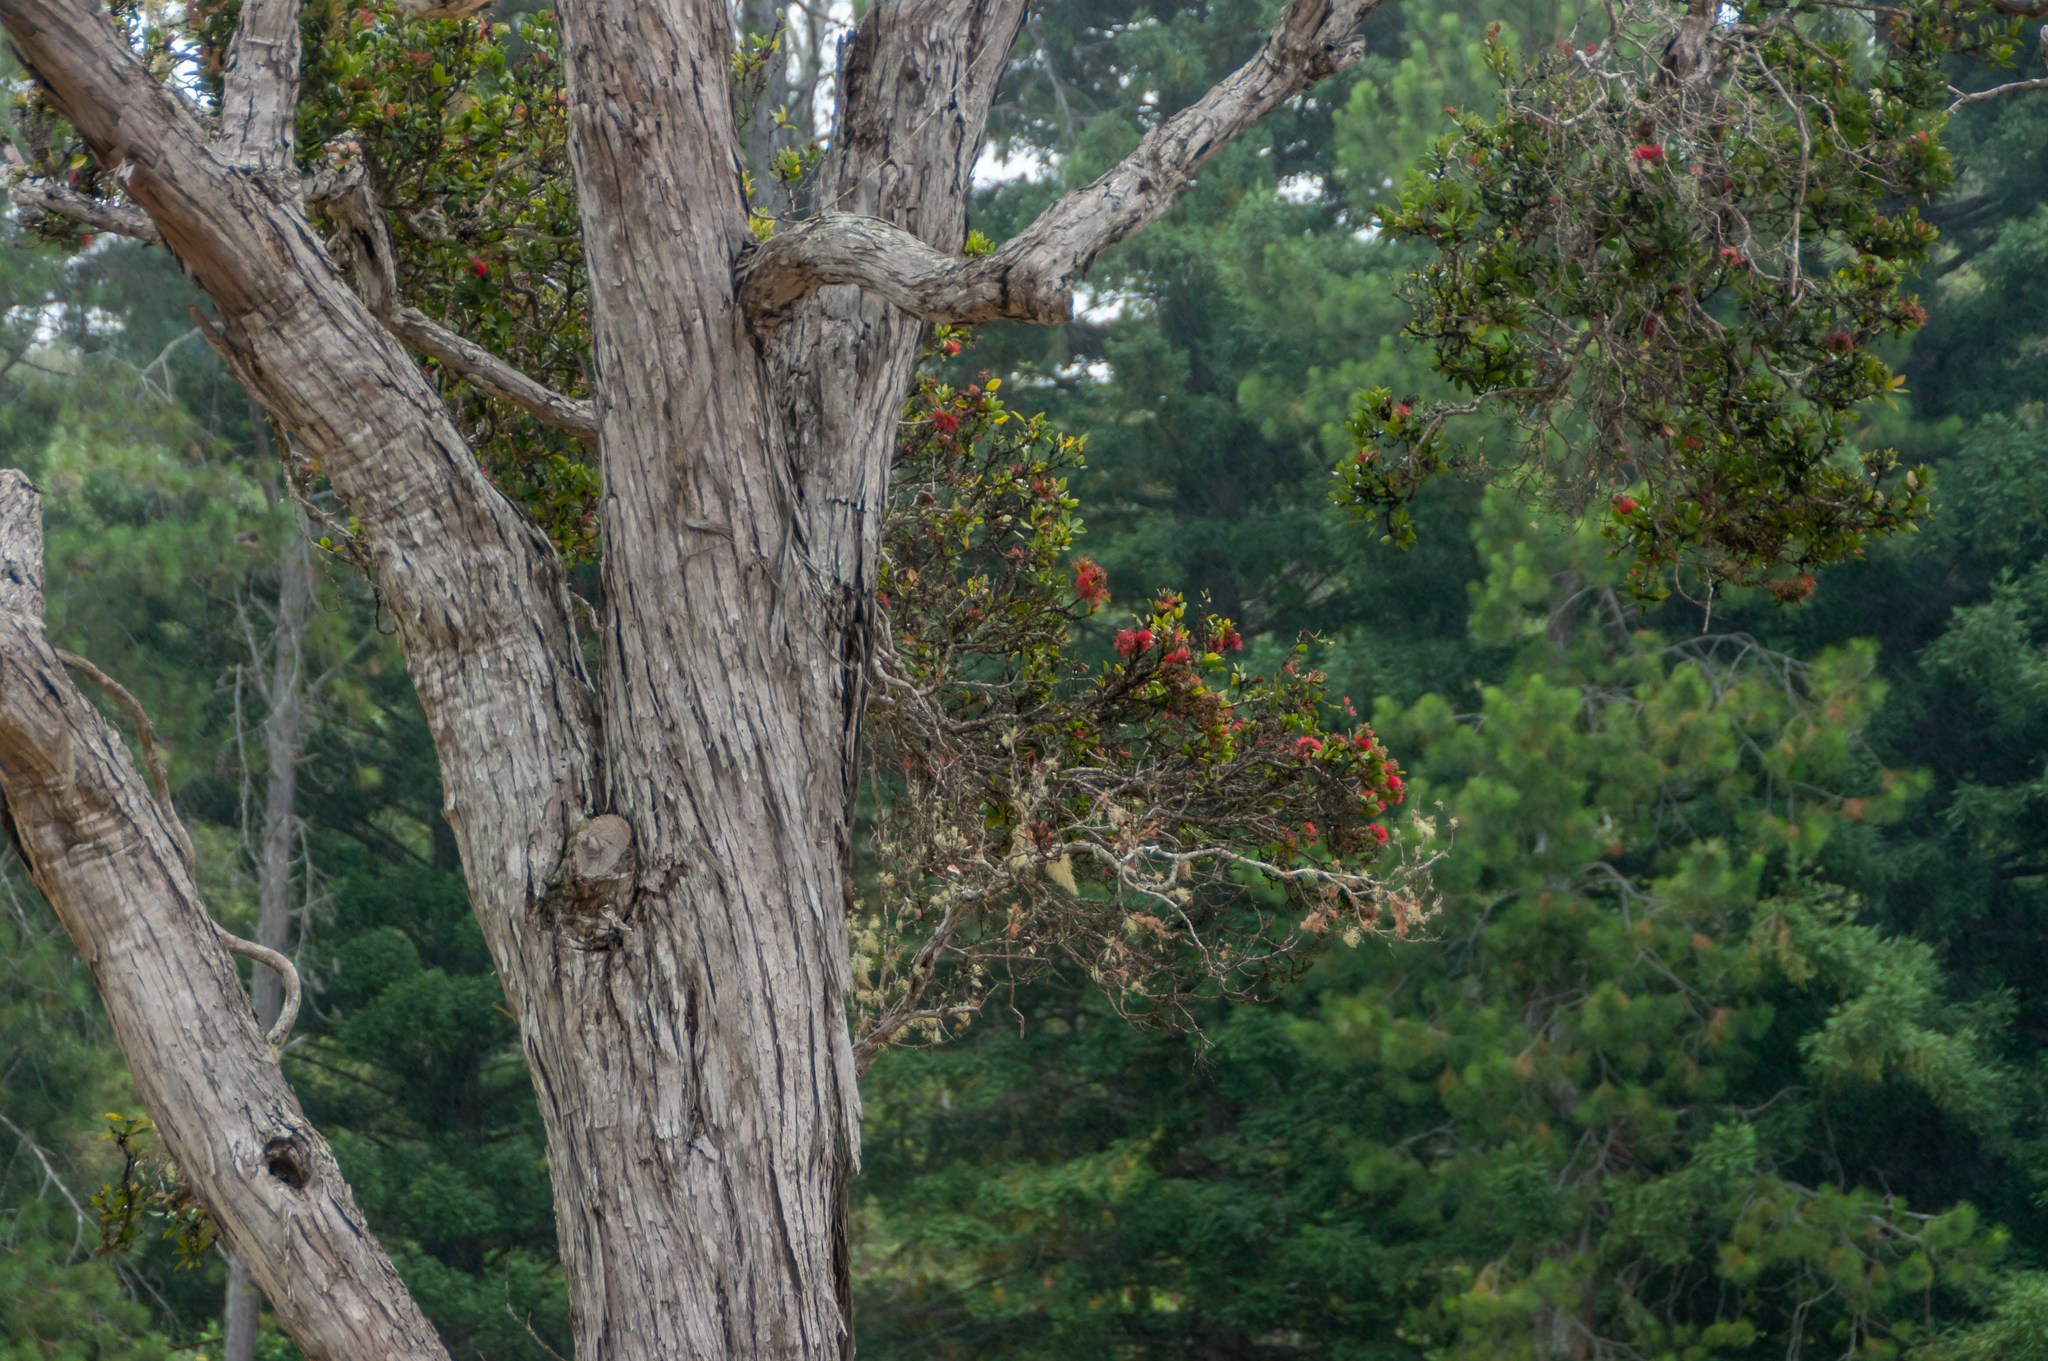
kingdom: Plantae
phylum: Tracheophyta
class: Magnoliopsida
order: Myrtales
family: Myrtaceae
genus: Metrosideros
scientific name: Metrosideros polymorpha
